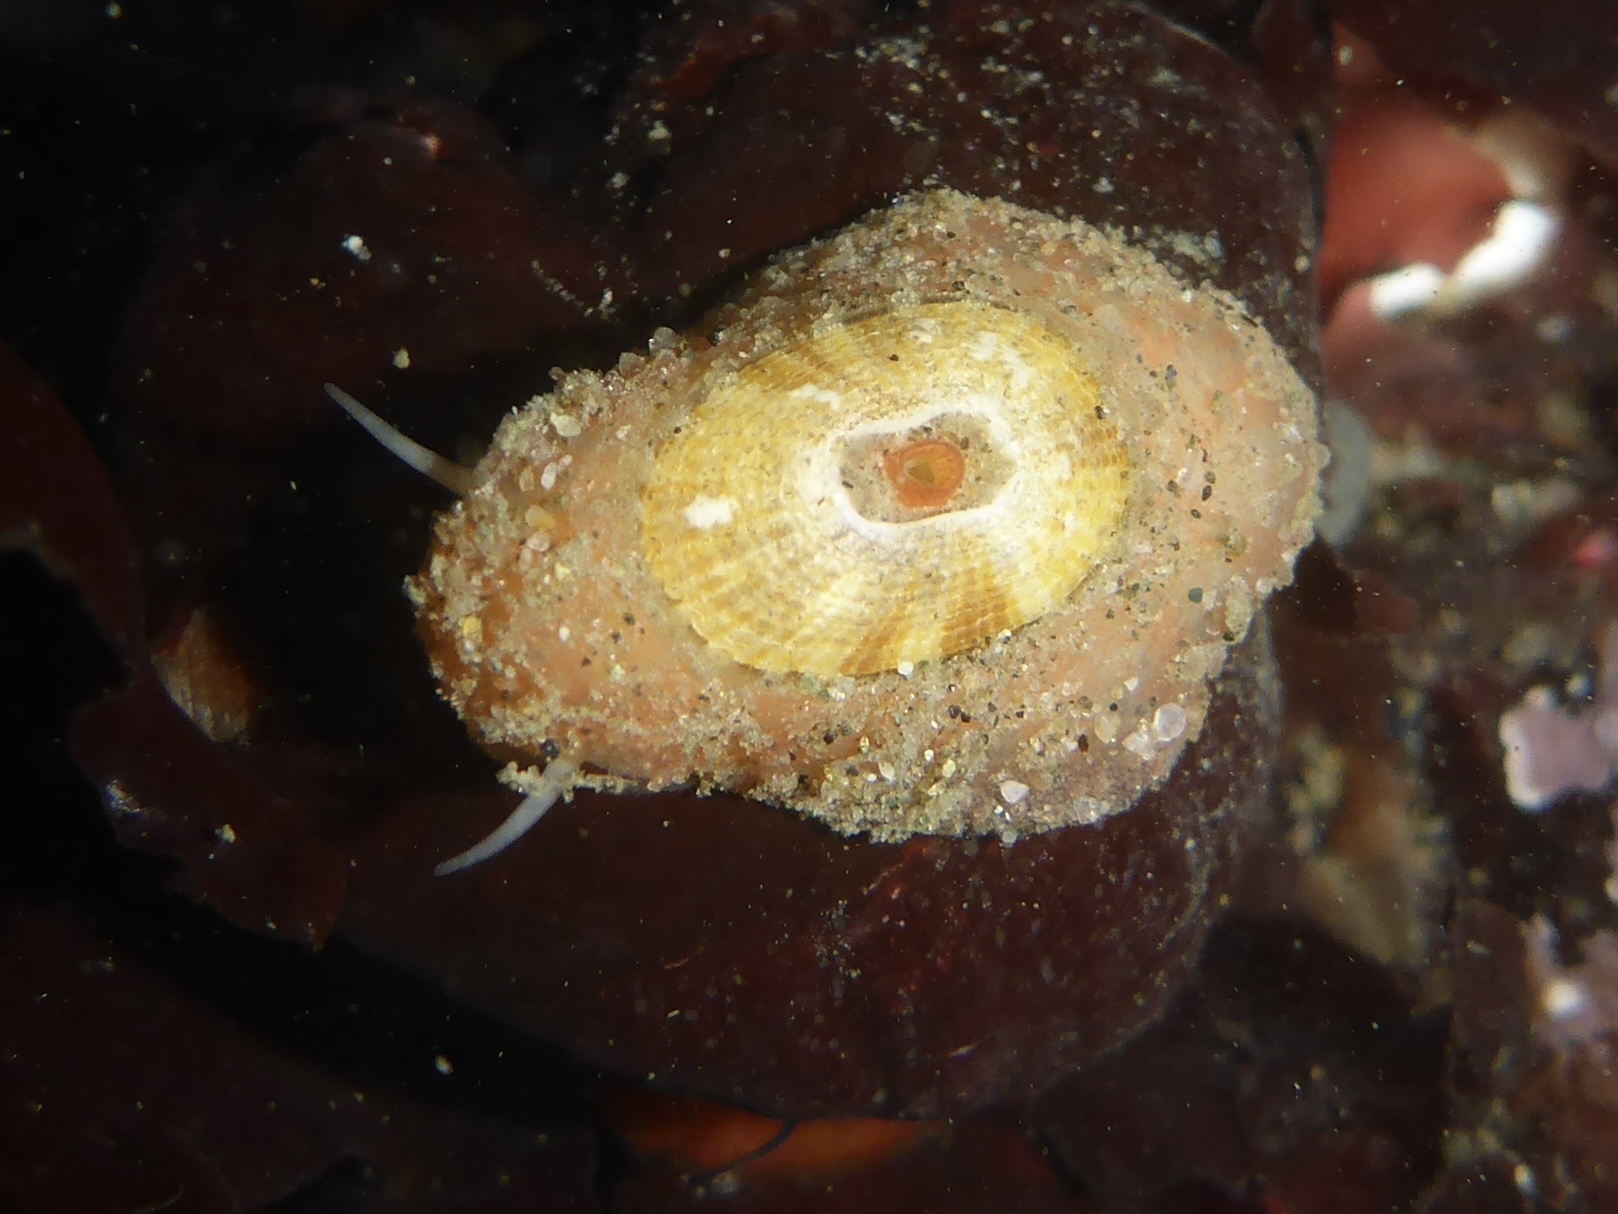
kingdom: Animalia
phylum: Mollusca
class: Gastropoda
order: Lepetellida
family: Fissurellidae
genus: Fissurellidea
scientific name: Fissurellidea bimaculata
